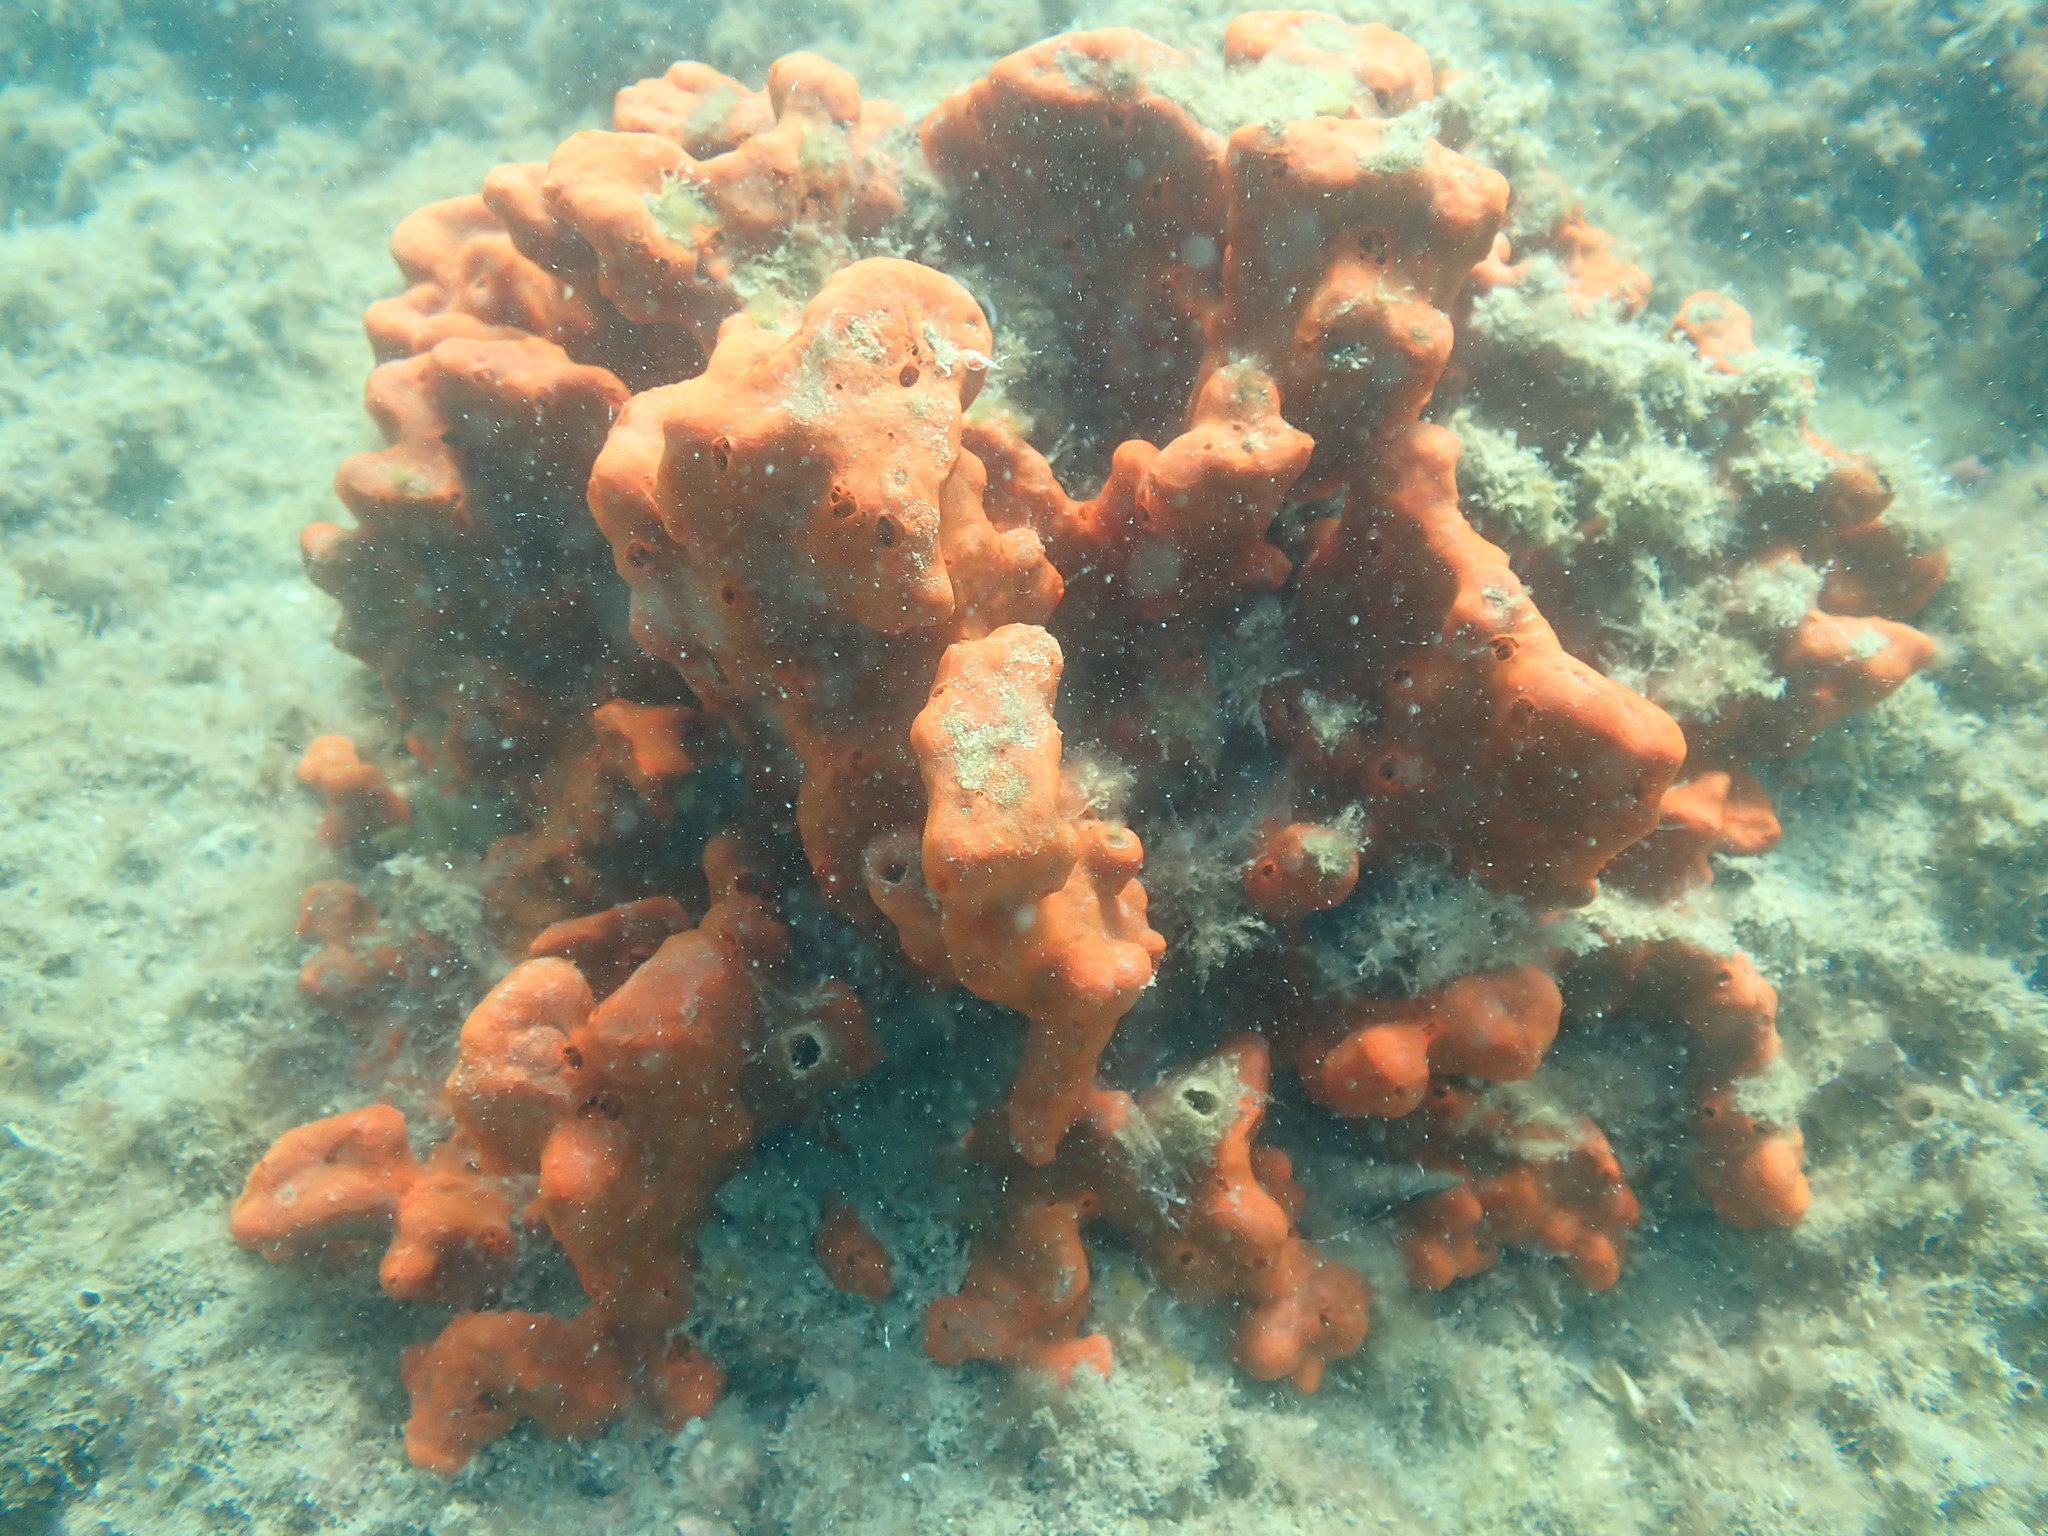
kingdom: Animalia
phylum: Porifera
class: Demospongiae
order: Poecilosclerida
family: Crellidae
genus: Crella
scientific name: Crella incrustans
